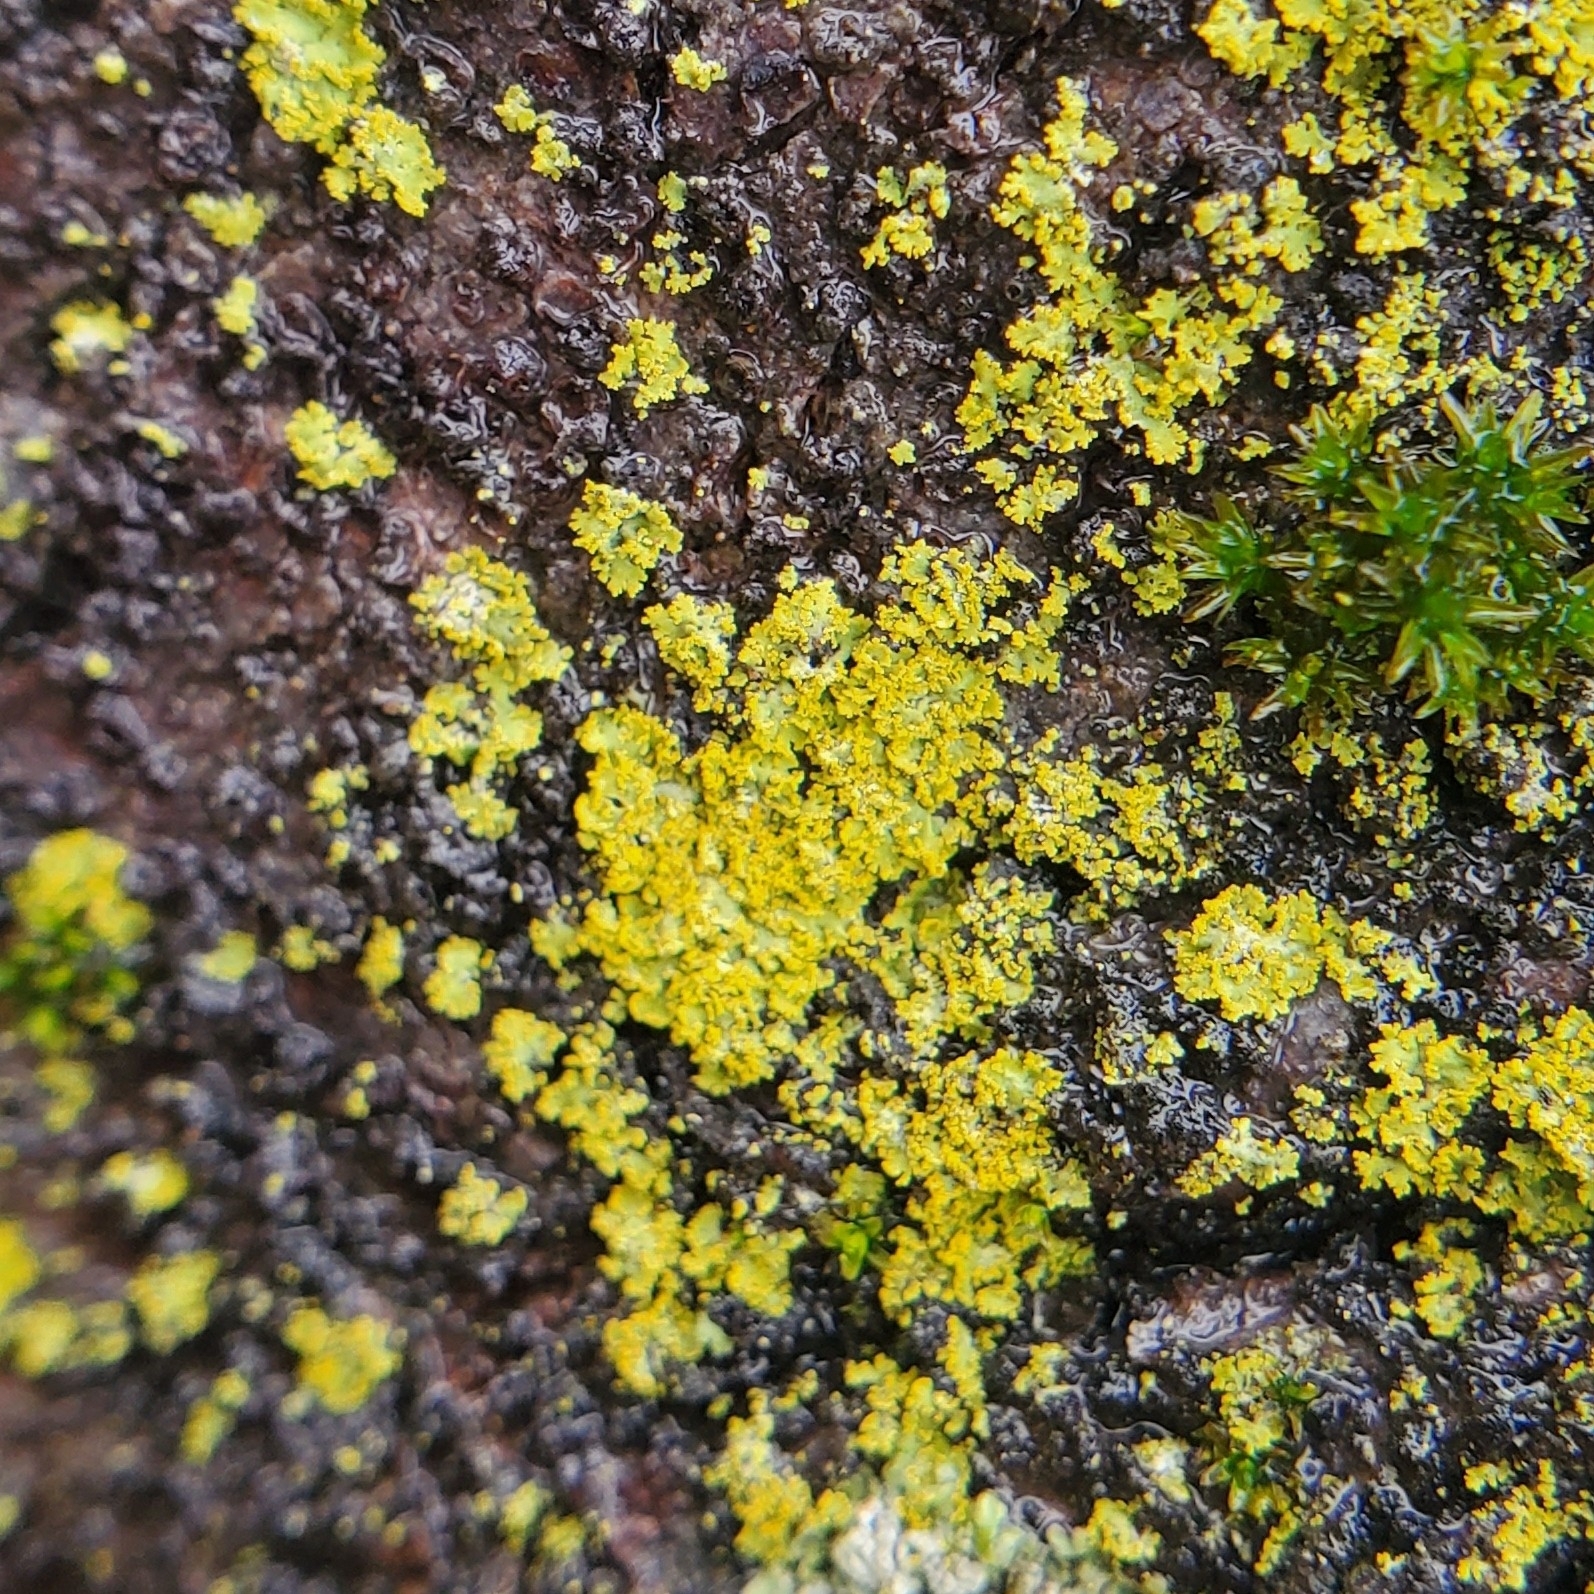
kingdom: Fungi
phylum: Ascomycota
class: Candelariomycetes
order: Candelariales
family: Candelariaceae
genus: Candelaria
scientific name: Candelaria concolor
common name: Candleflame lichen
